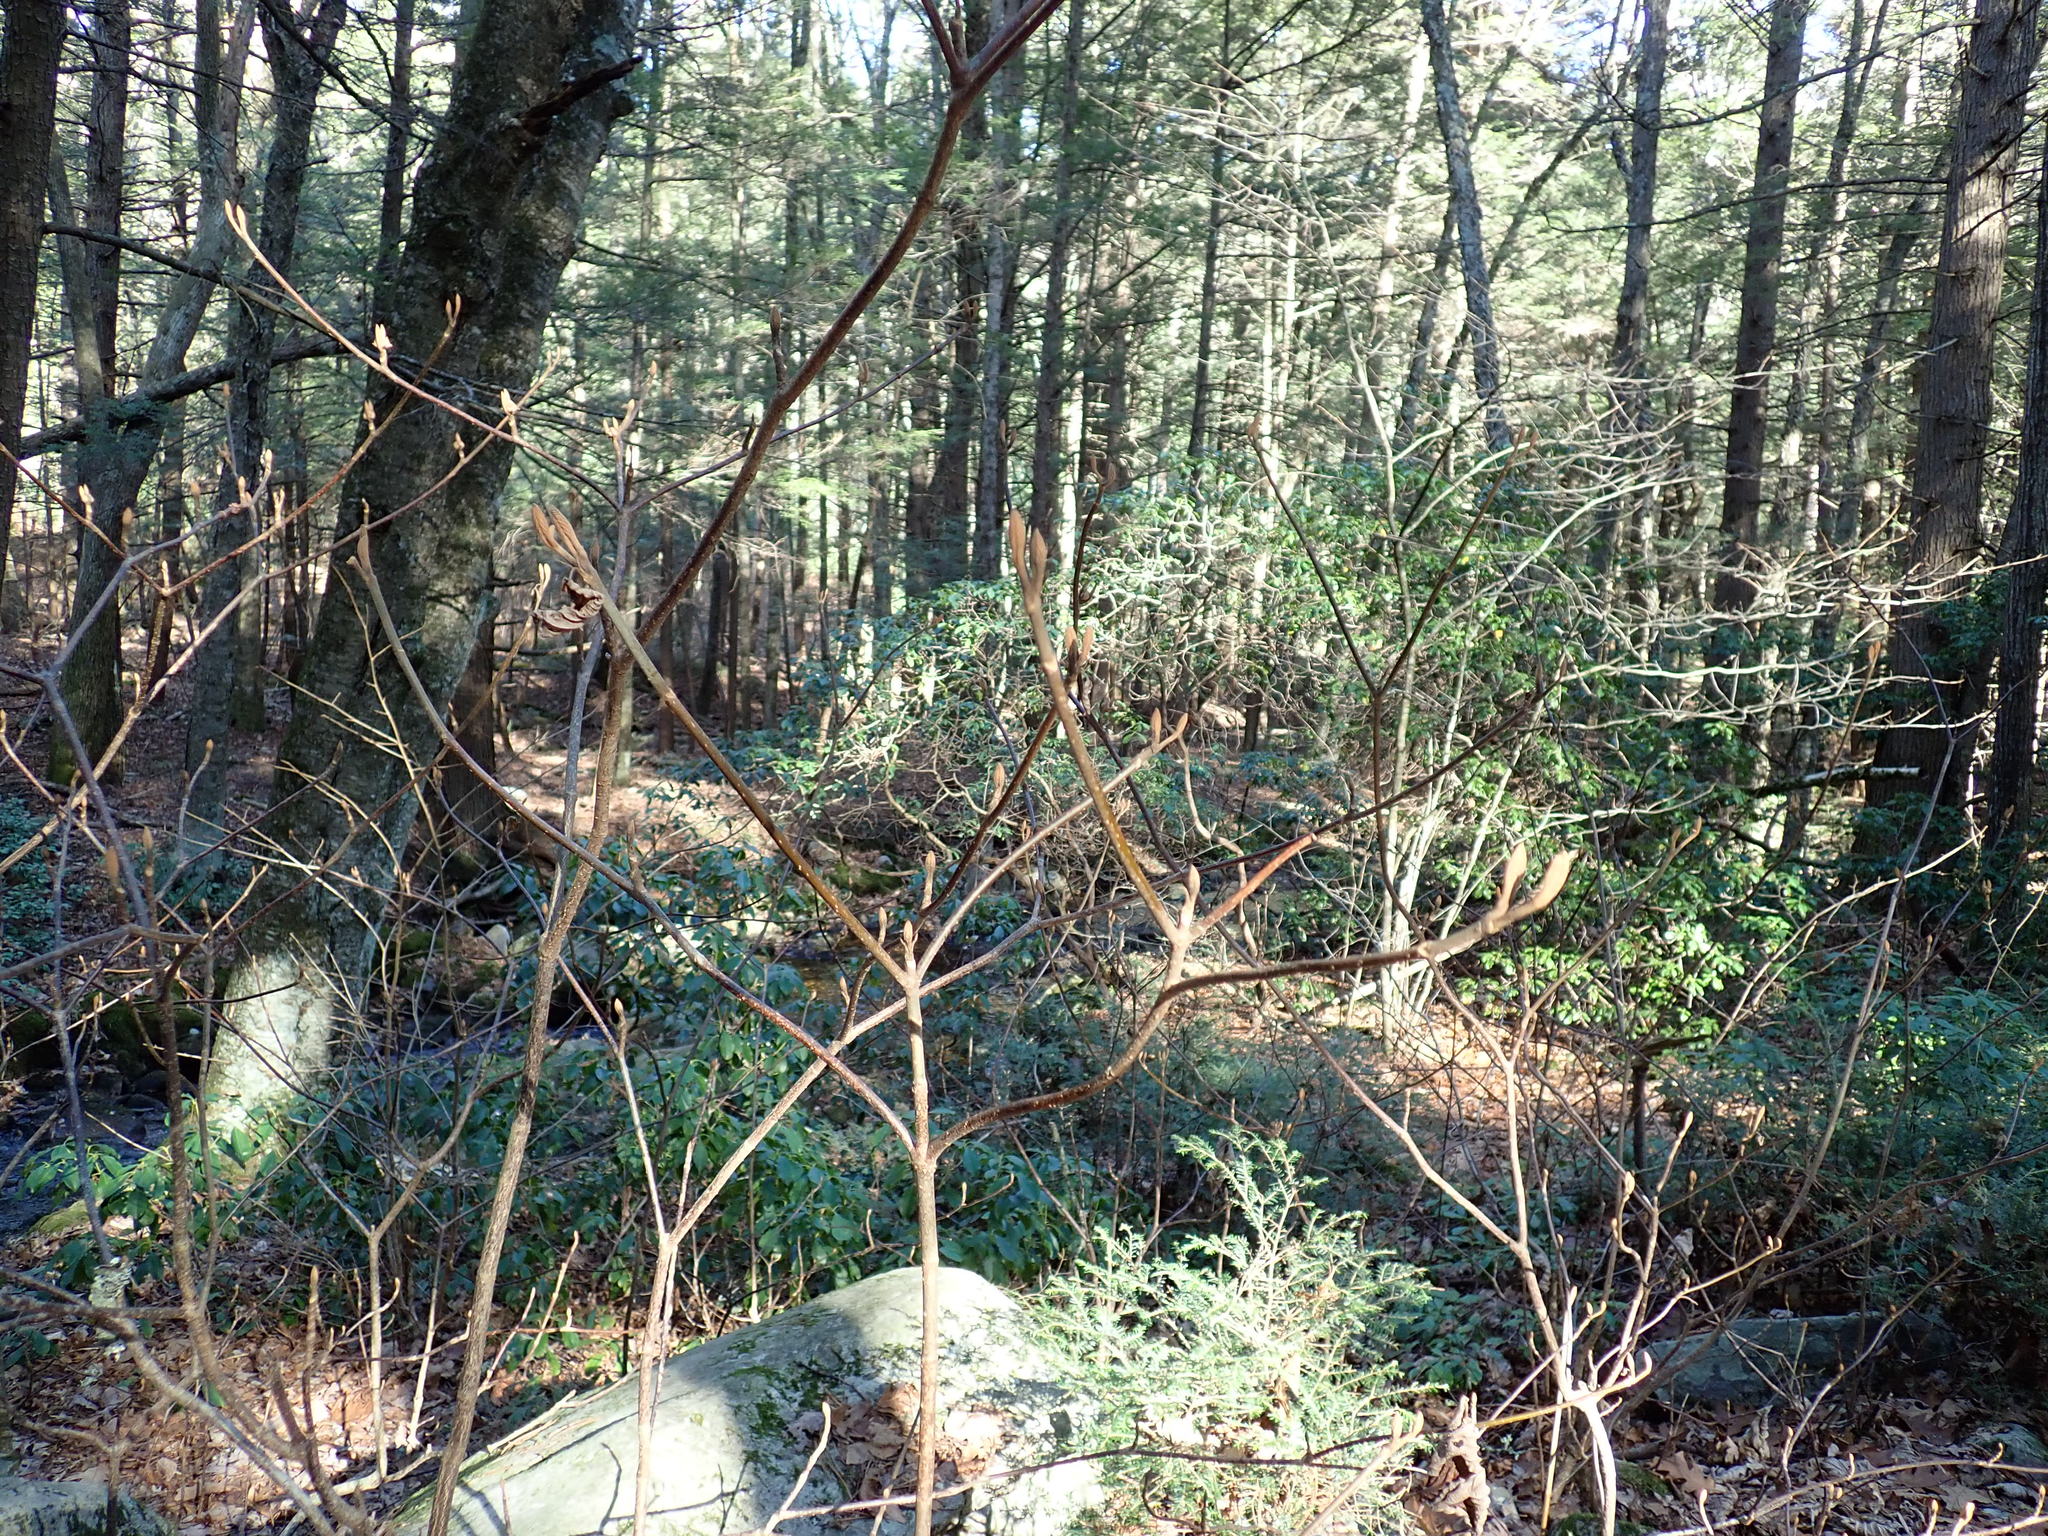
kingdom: Plantae
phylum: Tracheophyta
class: Magnoliopsida
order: Dipsacales
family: Viburnaceae
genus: Viburnum
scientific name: Viburnum lantanoides
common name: Hobblebush
